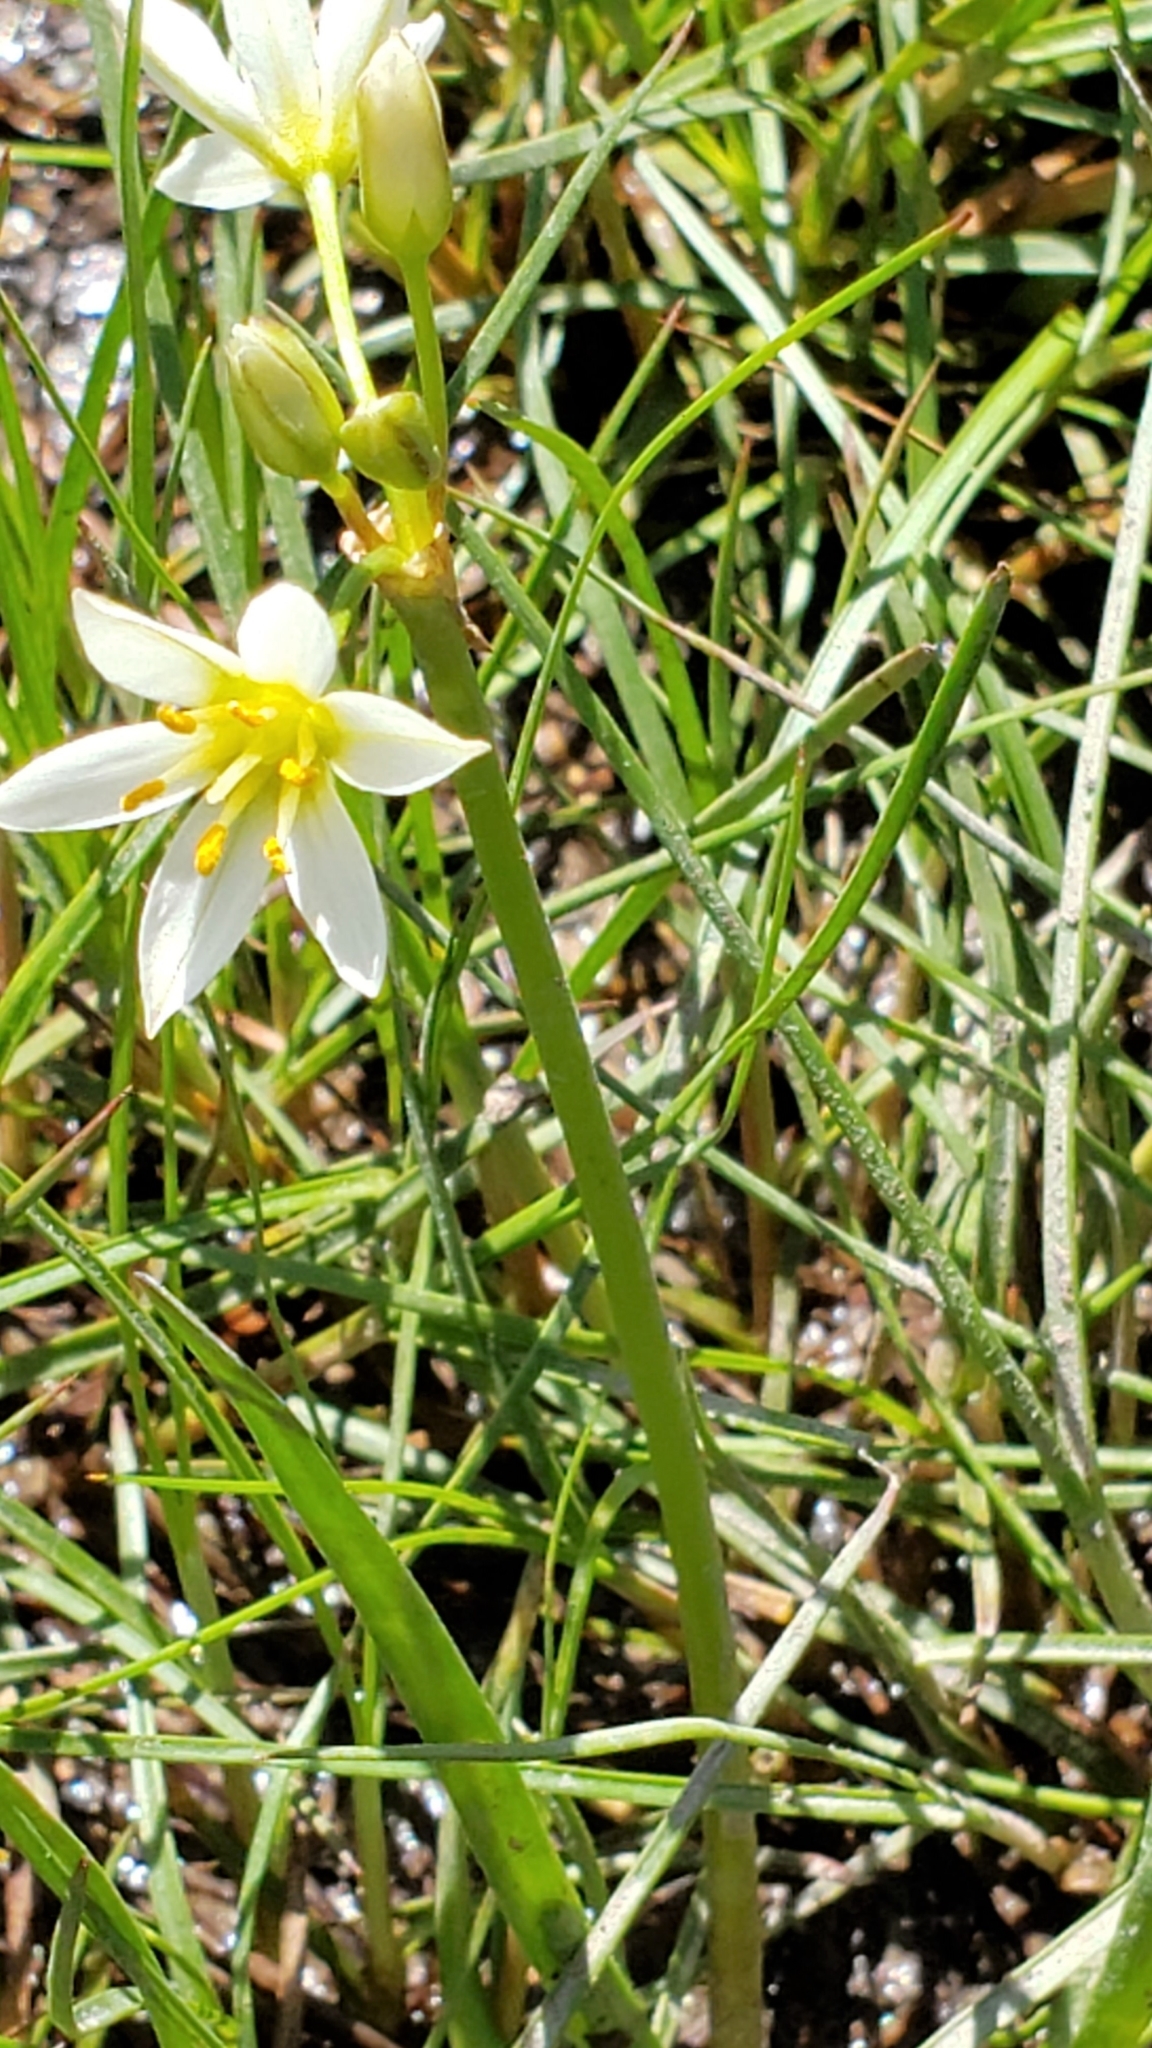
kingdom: Plantae
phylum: Tracheophyta
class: Liliopsida
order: Asparagales
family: Amaryllidaceae
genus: Nothoscordum
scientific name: Nothoscordum bivalve
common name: Crow-poison
